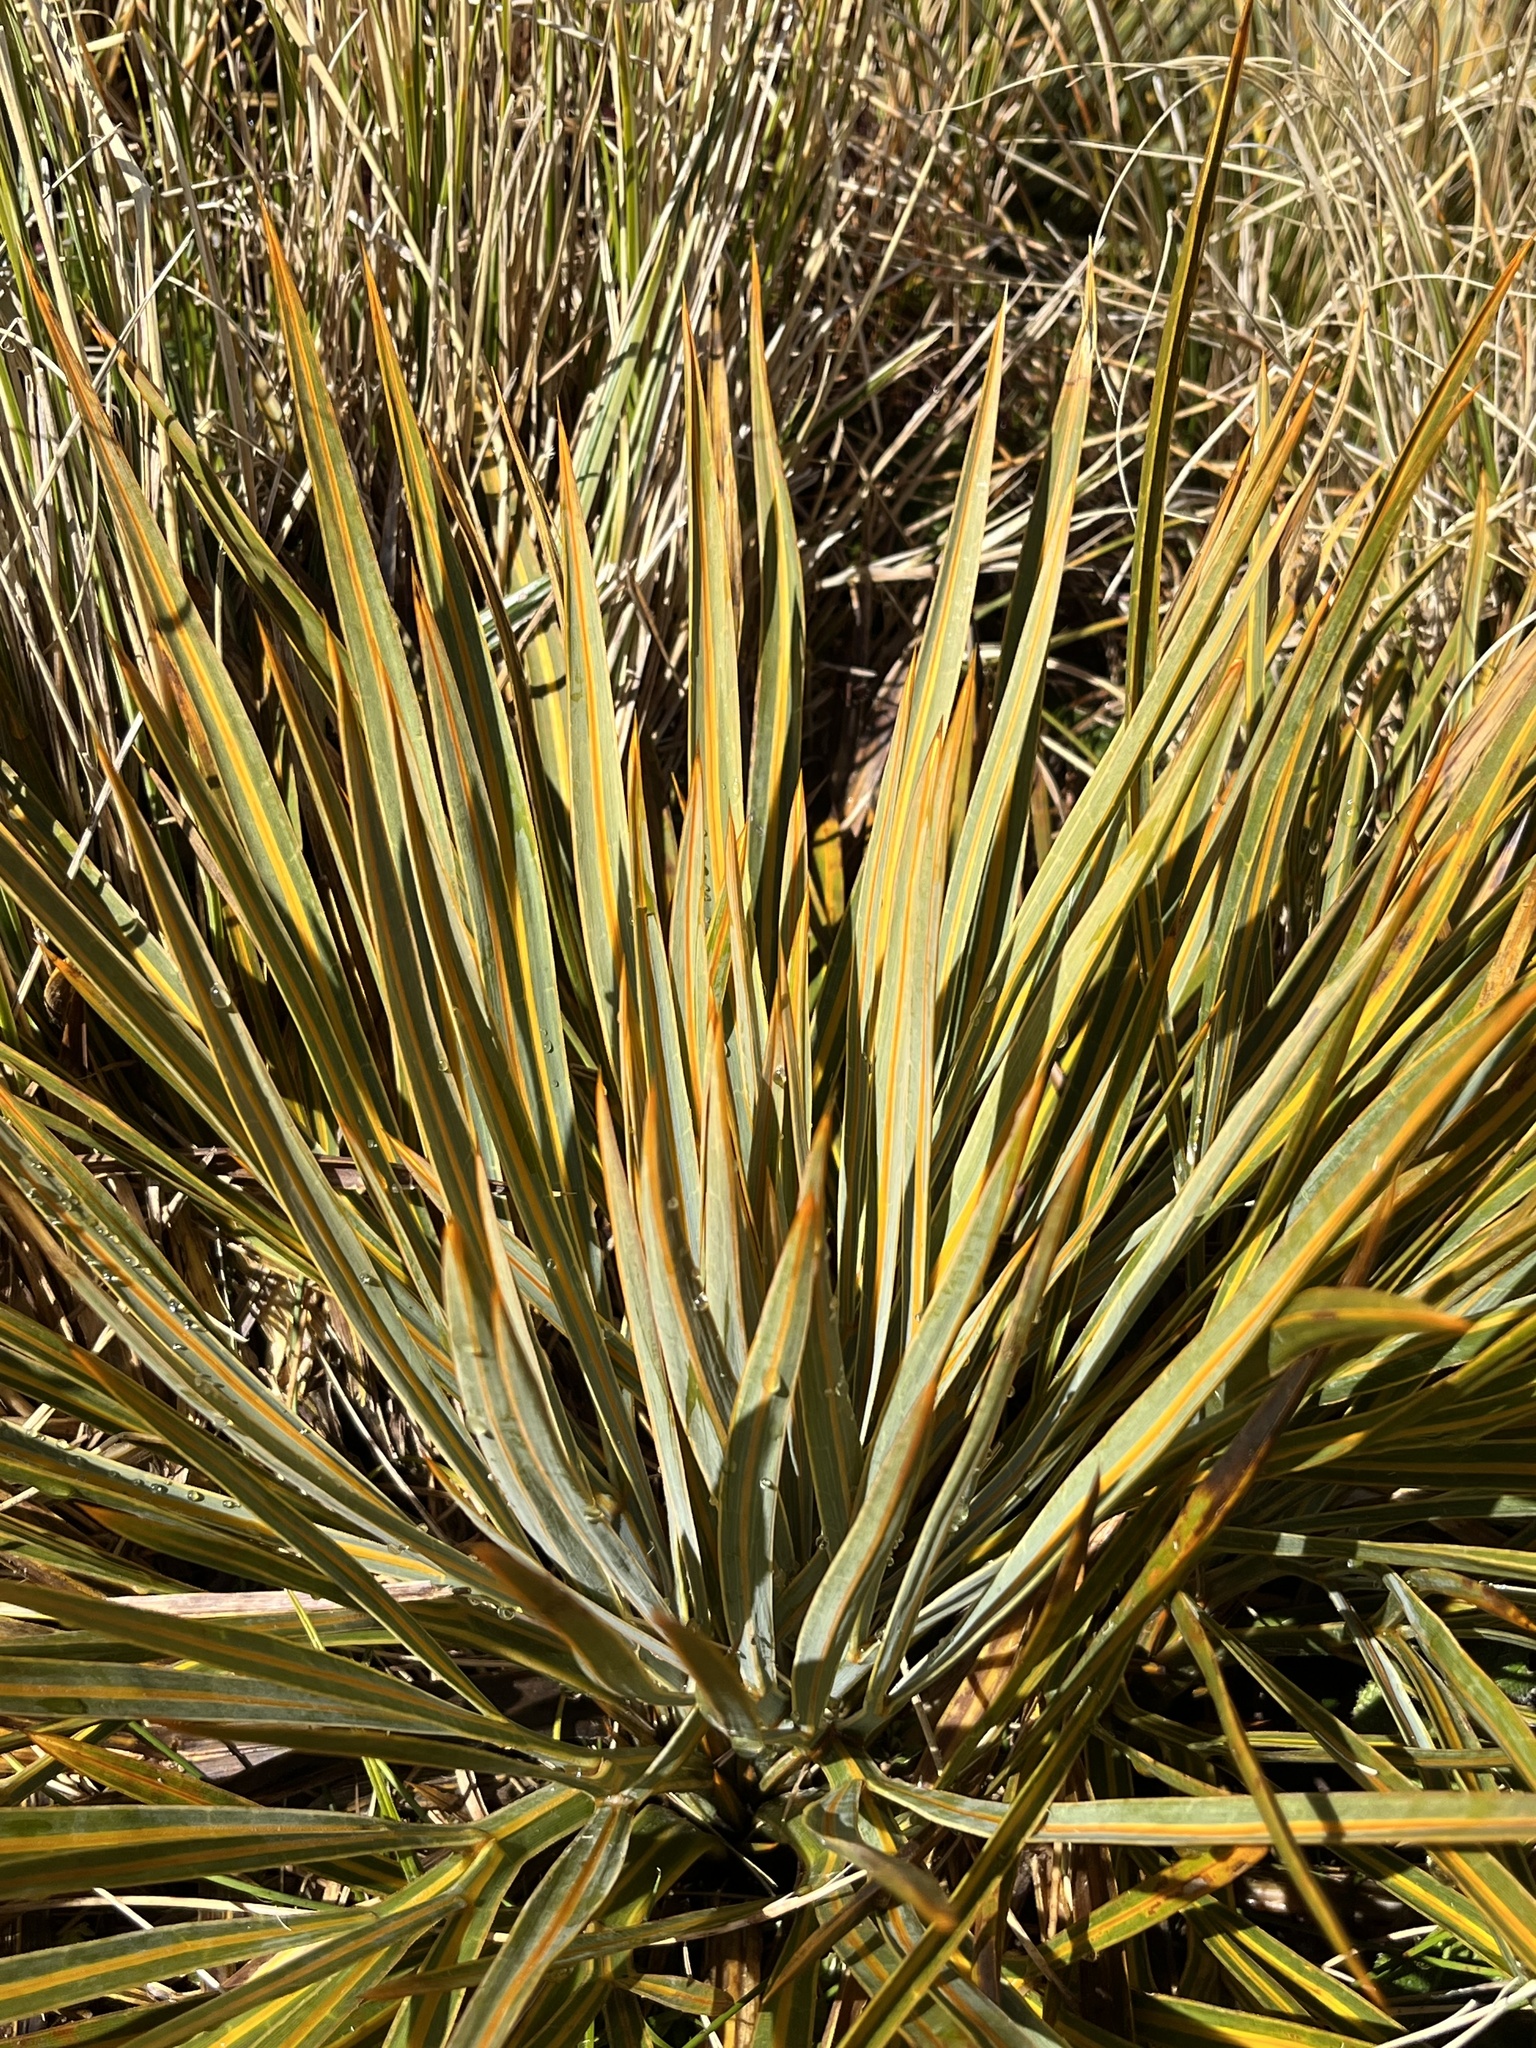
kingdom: Plantae
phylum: Tracheophyta
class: Magnoliopsida
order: Apiales
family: Apiaceae
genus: Aciphylla
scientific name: Aciphylla colensoi
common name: Colenso's spaniard
